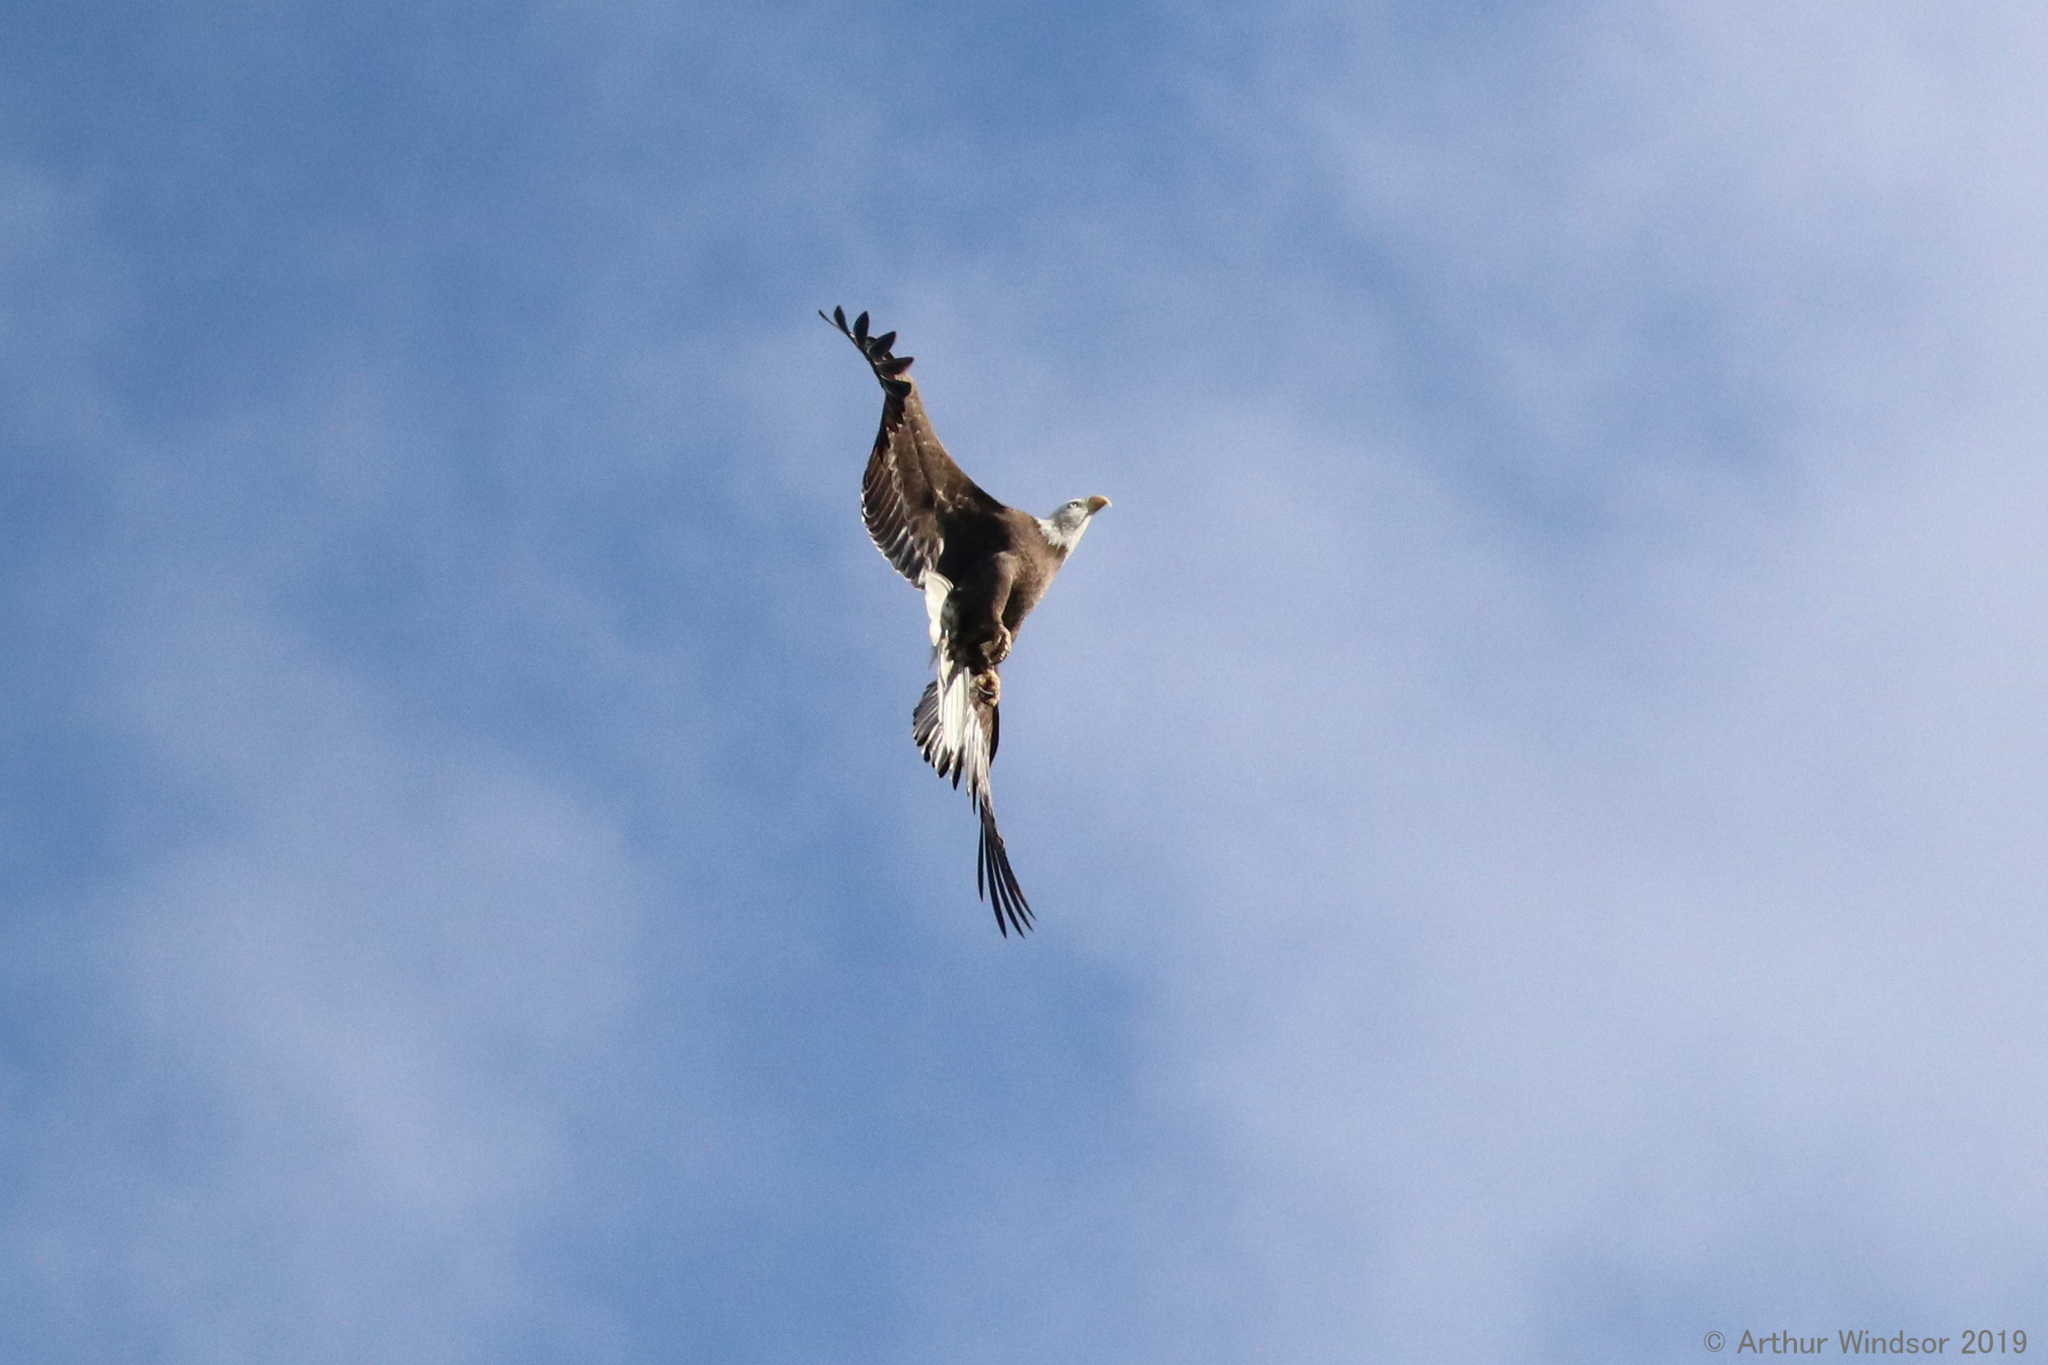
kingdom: Animalia
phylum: Chordata
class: Aves
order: Accipitriformes
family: Accipitridae
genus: Haliaeetus
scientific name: Haliaeetus leucocephalus
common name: Bald eagle
